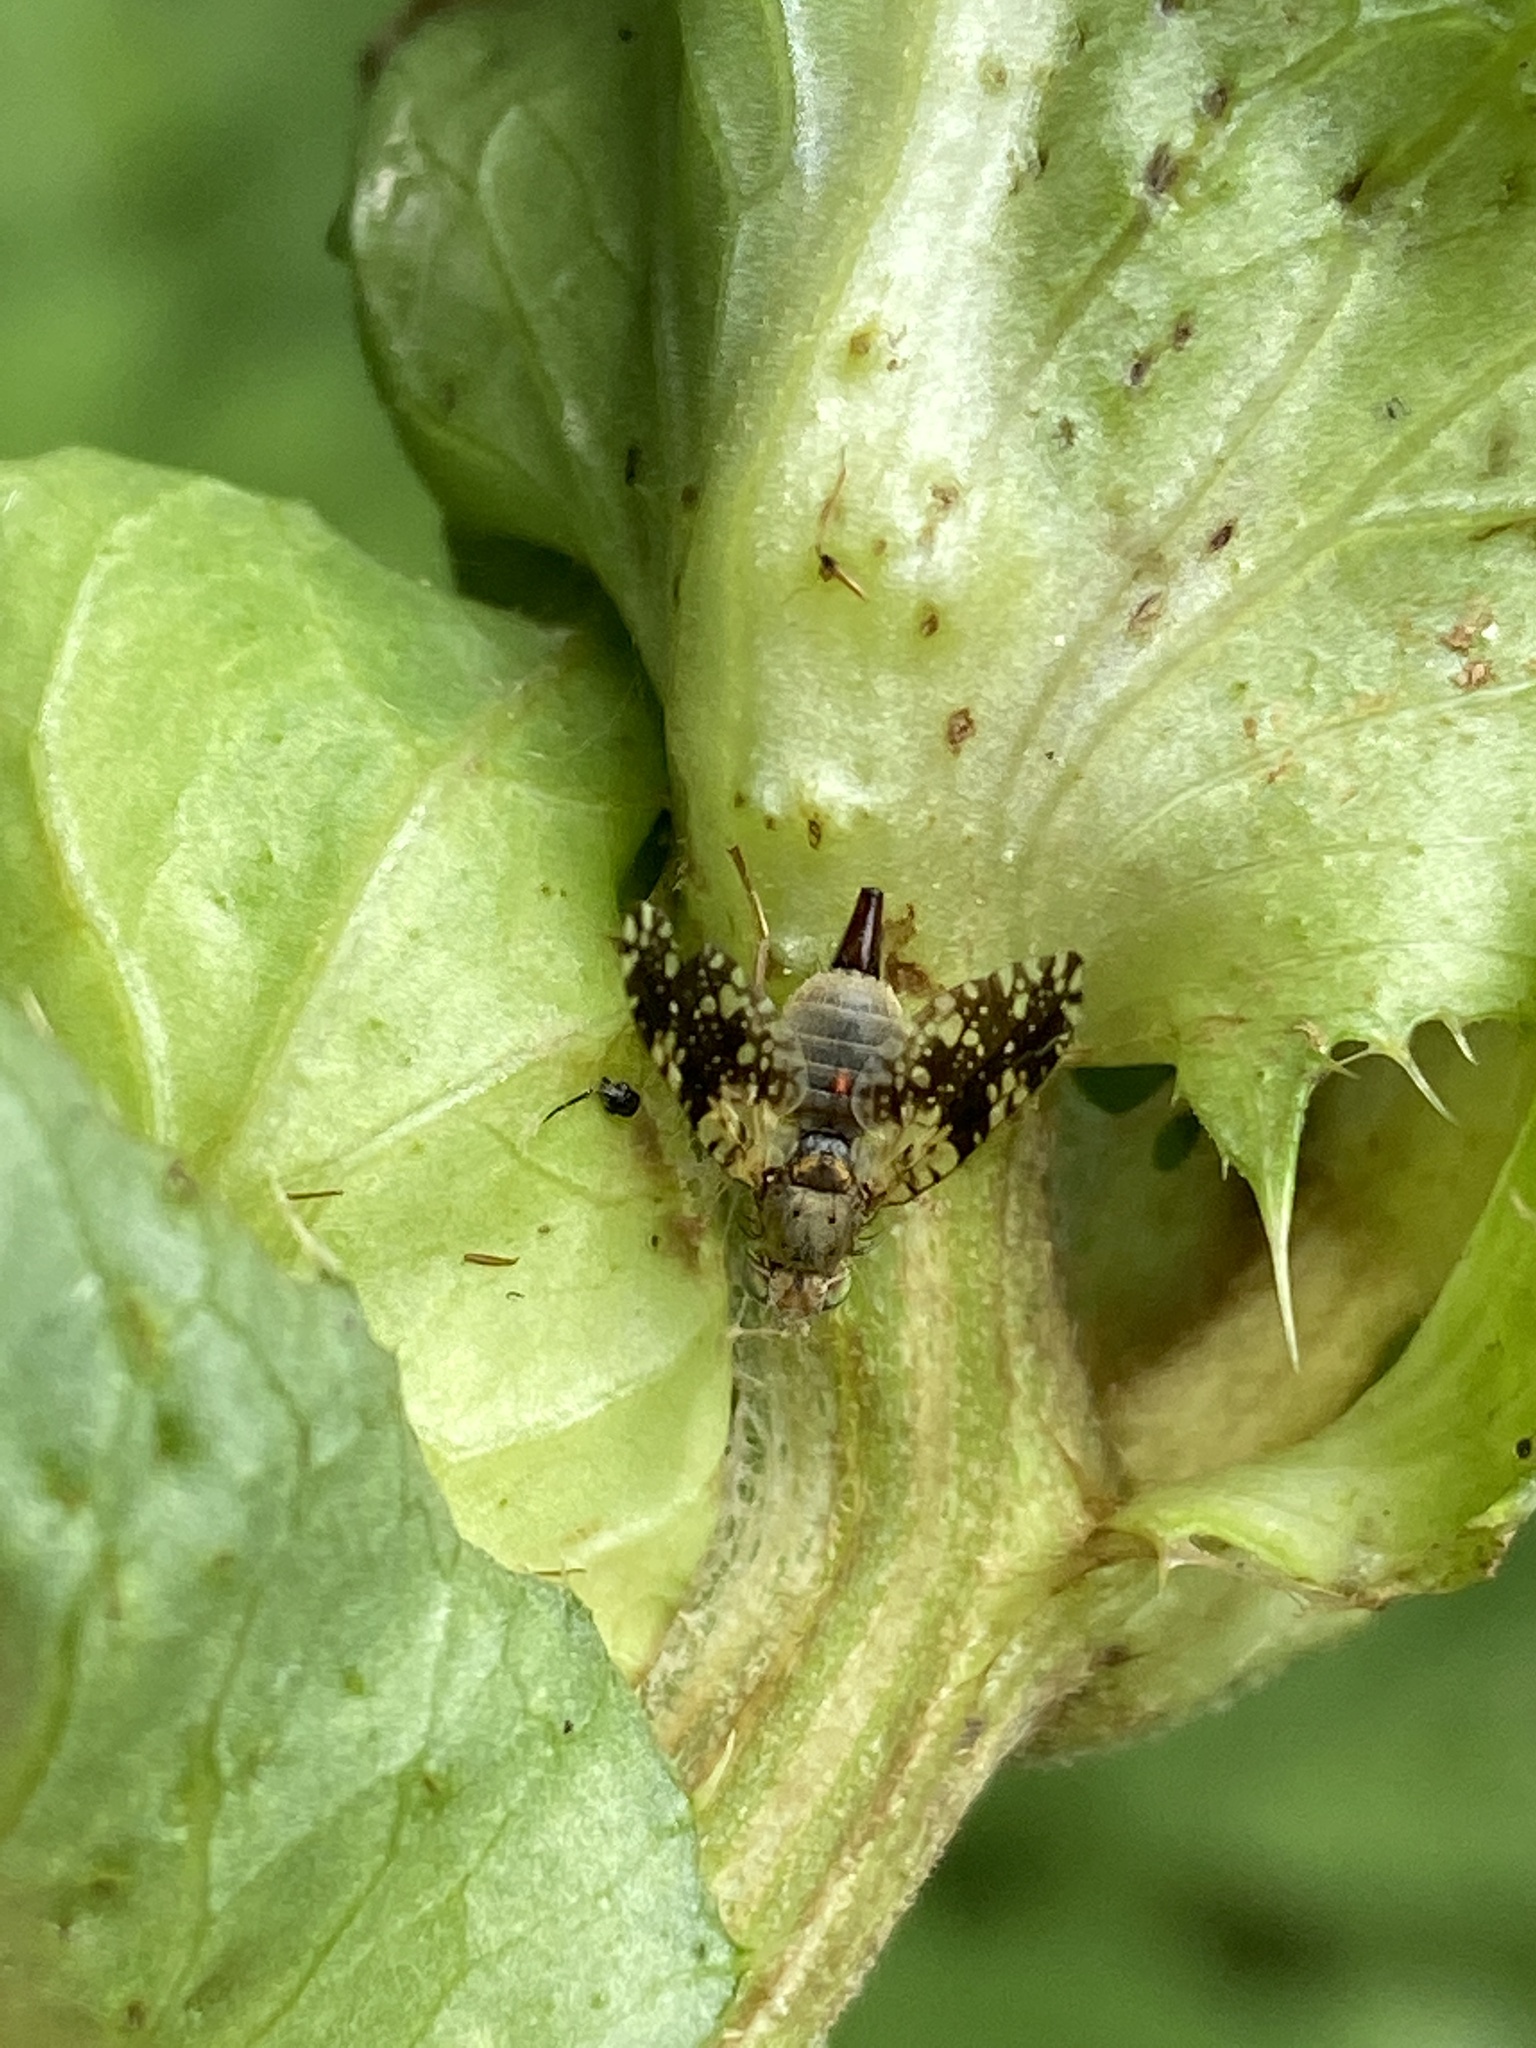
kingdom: Animalia
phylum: Arthropoda
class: Insecta
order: Diptera
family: Tephritidae
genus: Tephritis
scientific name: Tephritis conura
